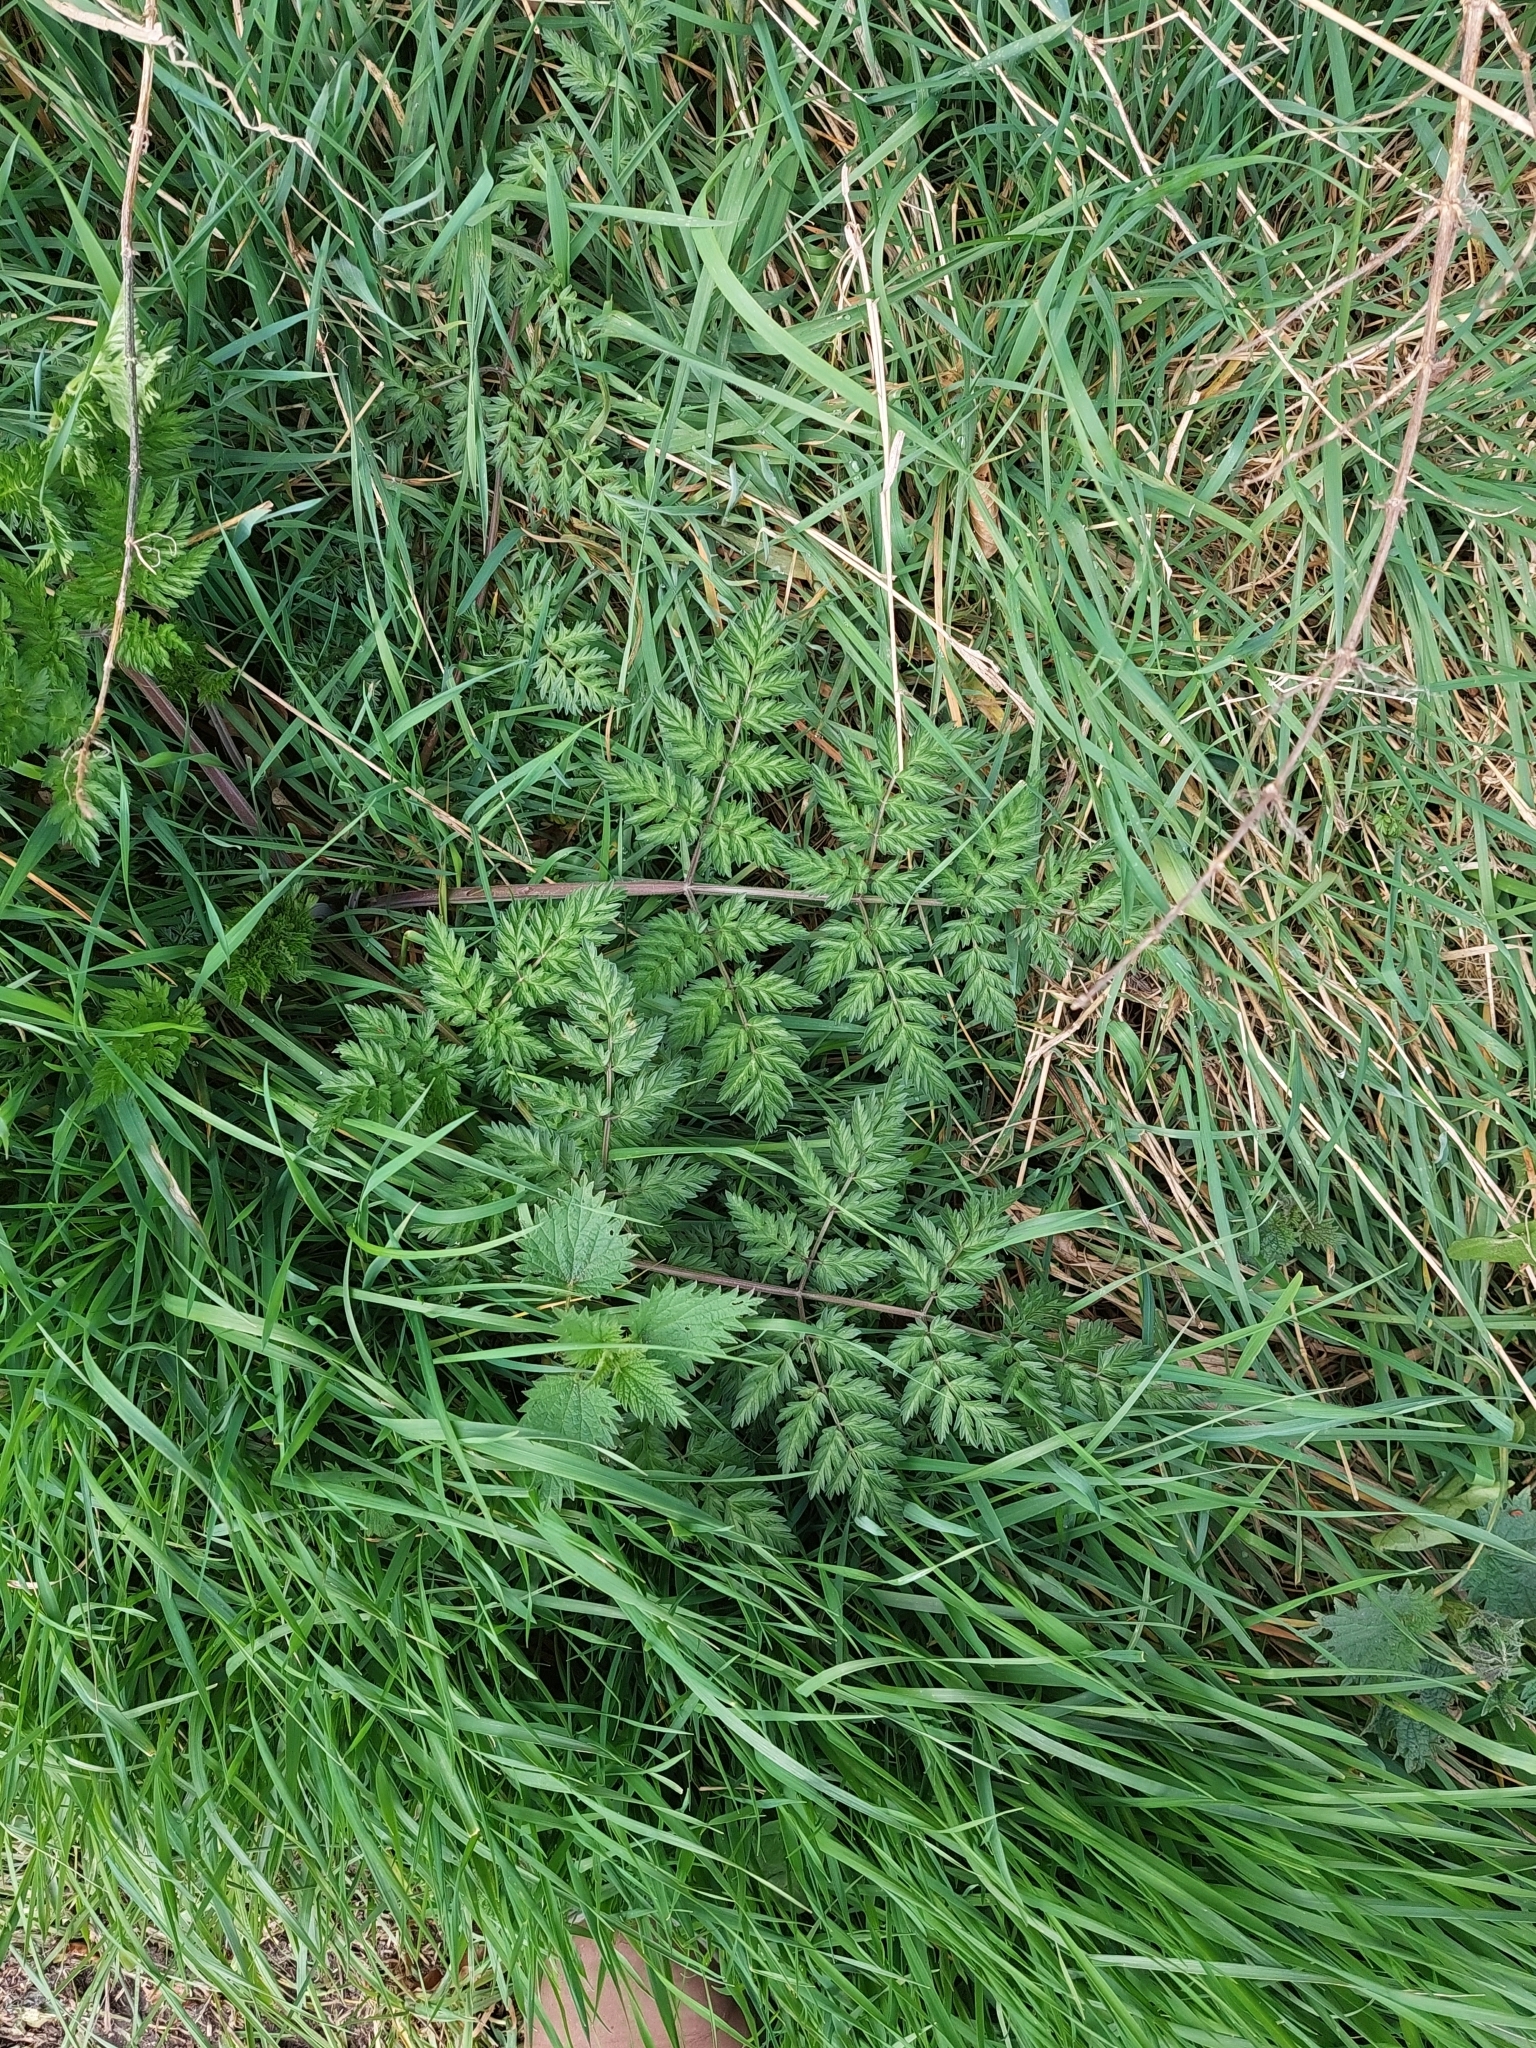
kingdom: Plantae
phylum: Tracheophyta
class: Magnoliopsida
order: Apiales
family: Apiaceae
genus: Anthriscus
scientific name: Anthriscus sylvestris
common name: Cow parsley
